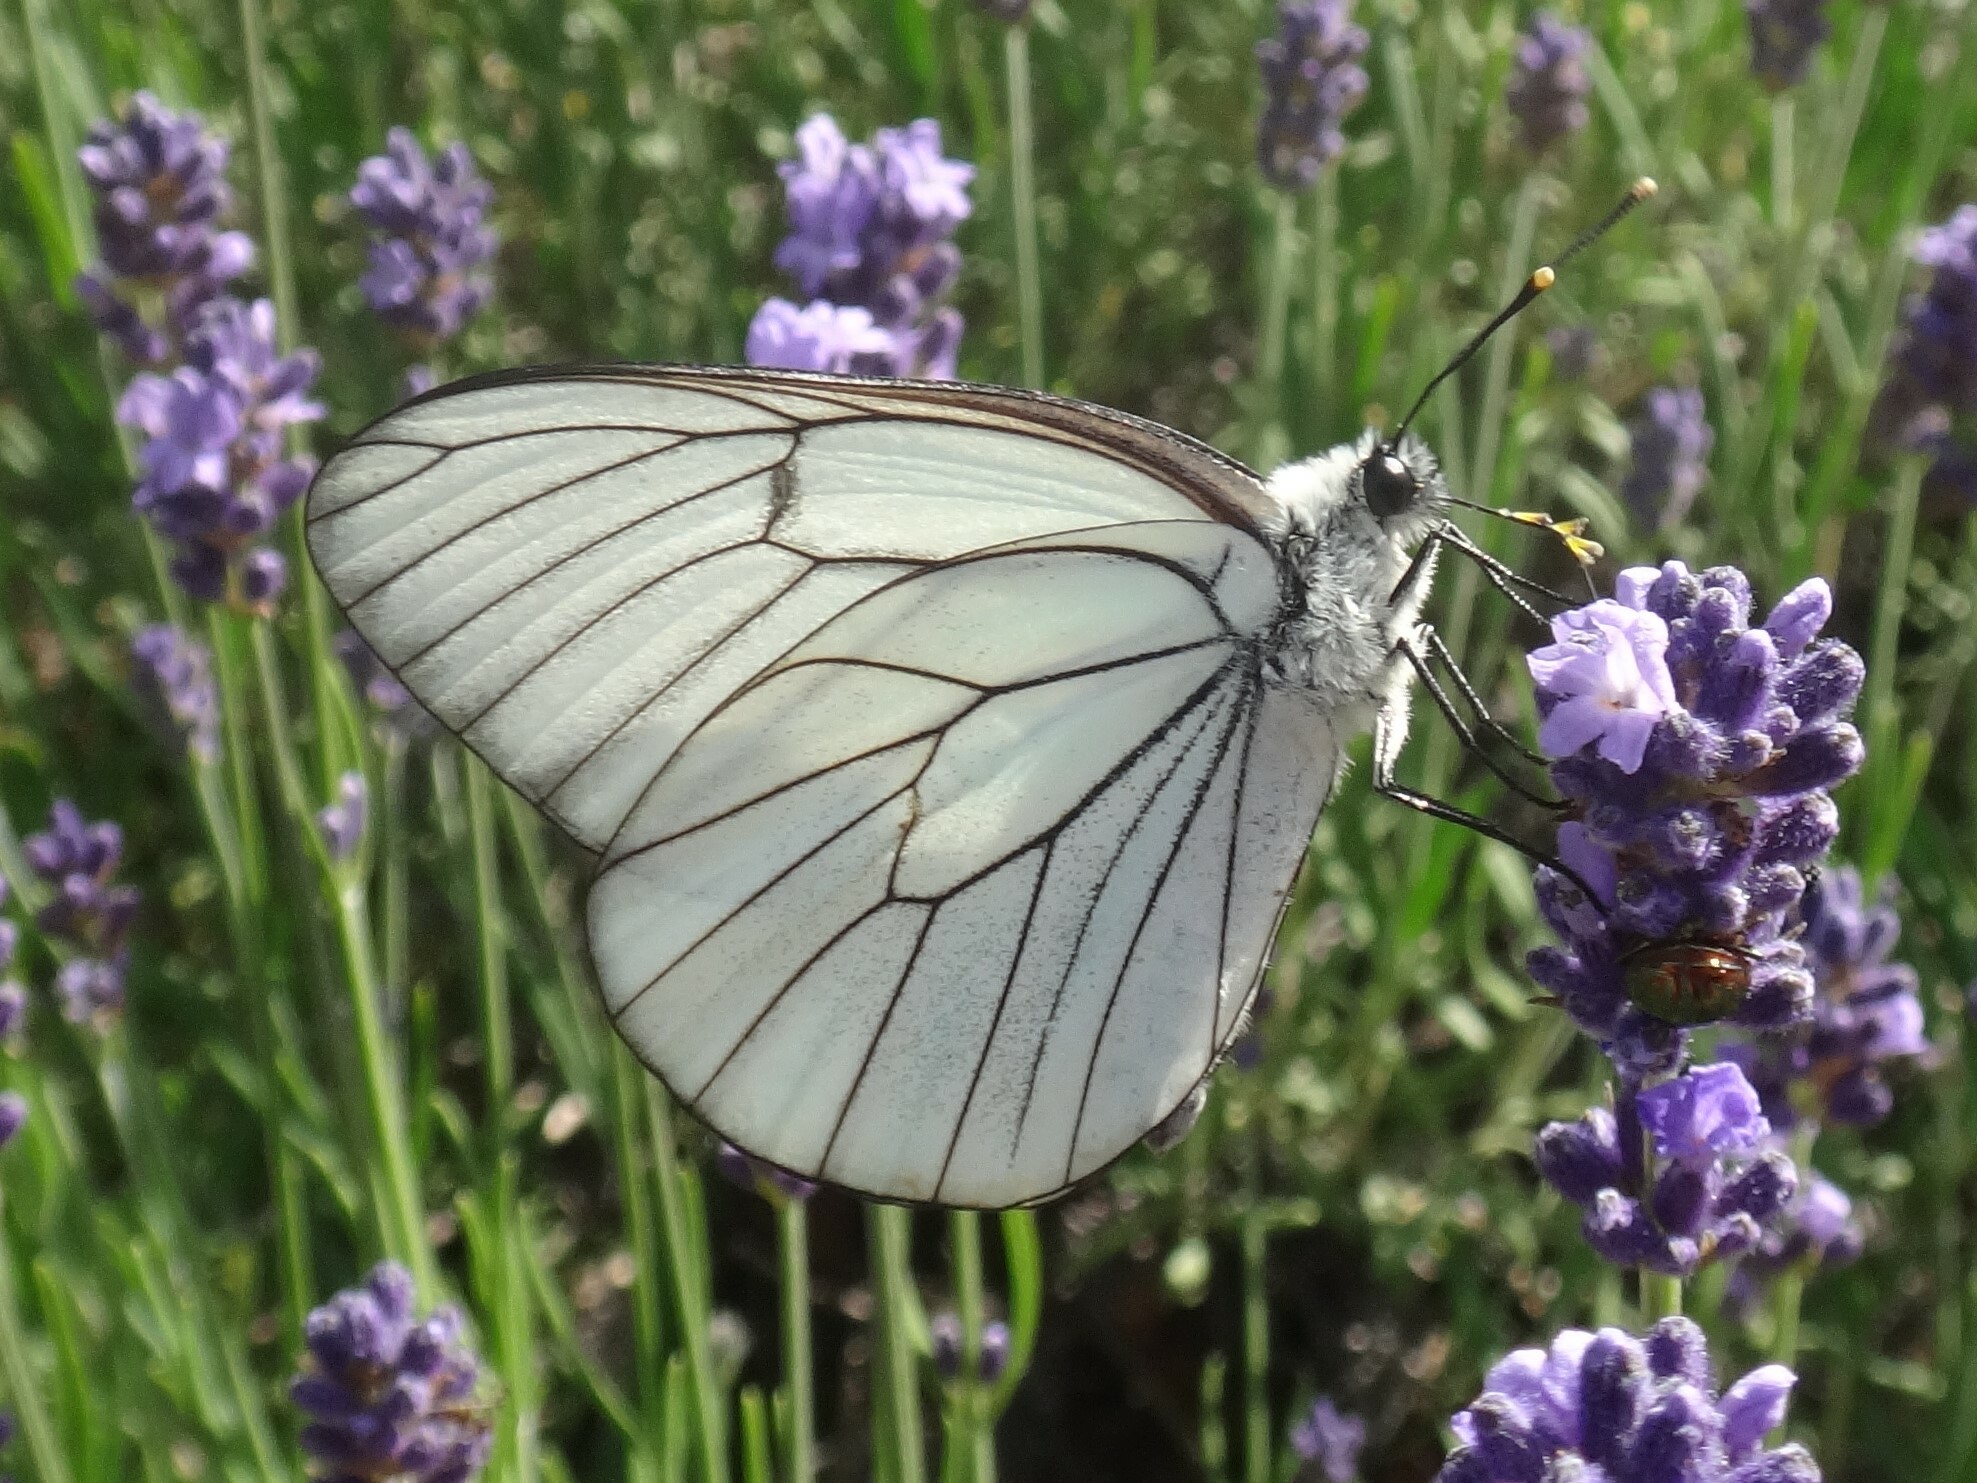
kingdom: Animalia
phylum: Arthropoda
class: Insecta
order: Lepidoptera
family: Pieridae
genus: Aporia
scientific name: Aporia crataegi
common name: Black-veined white
